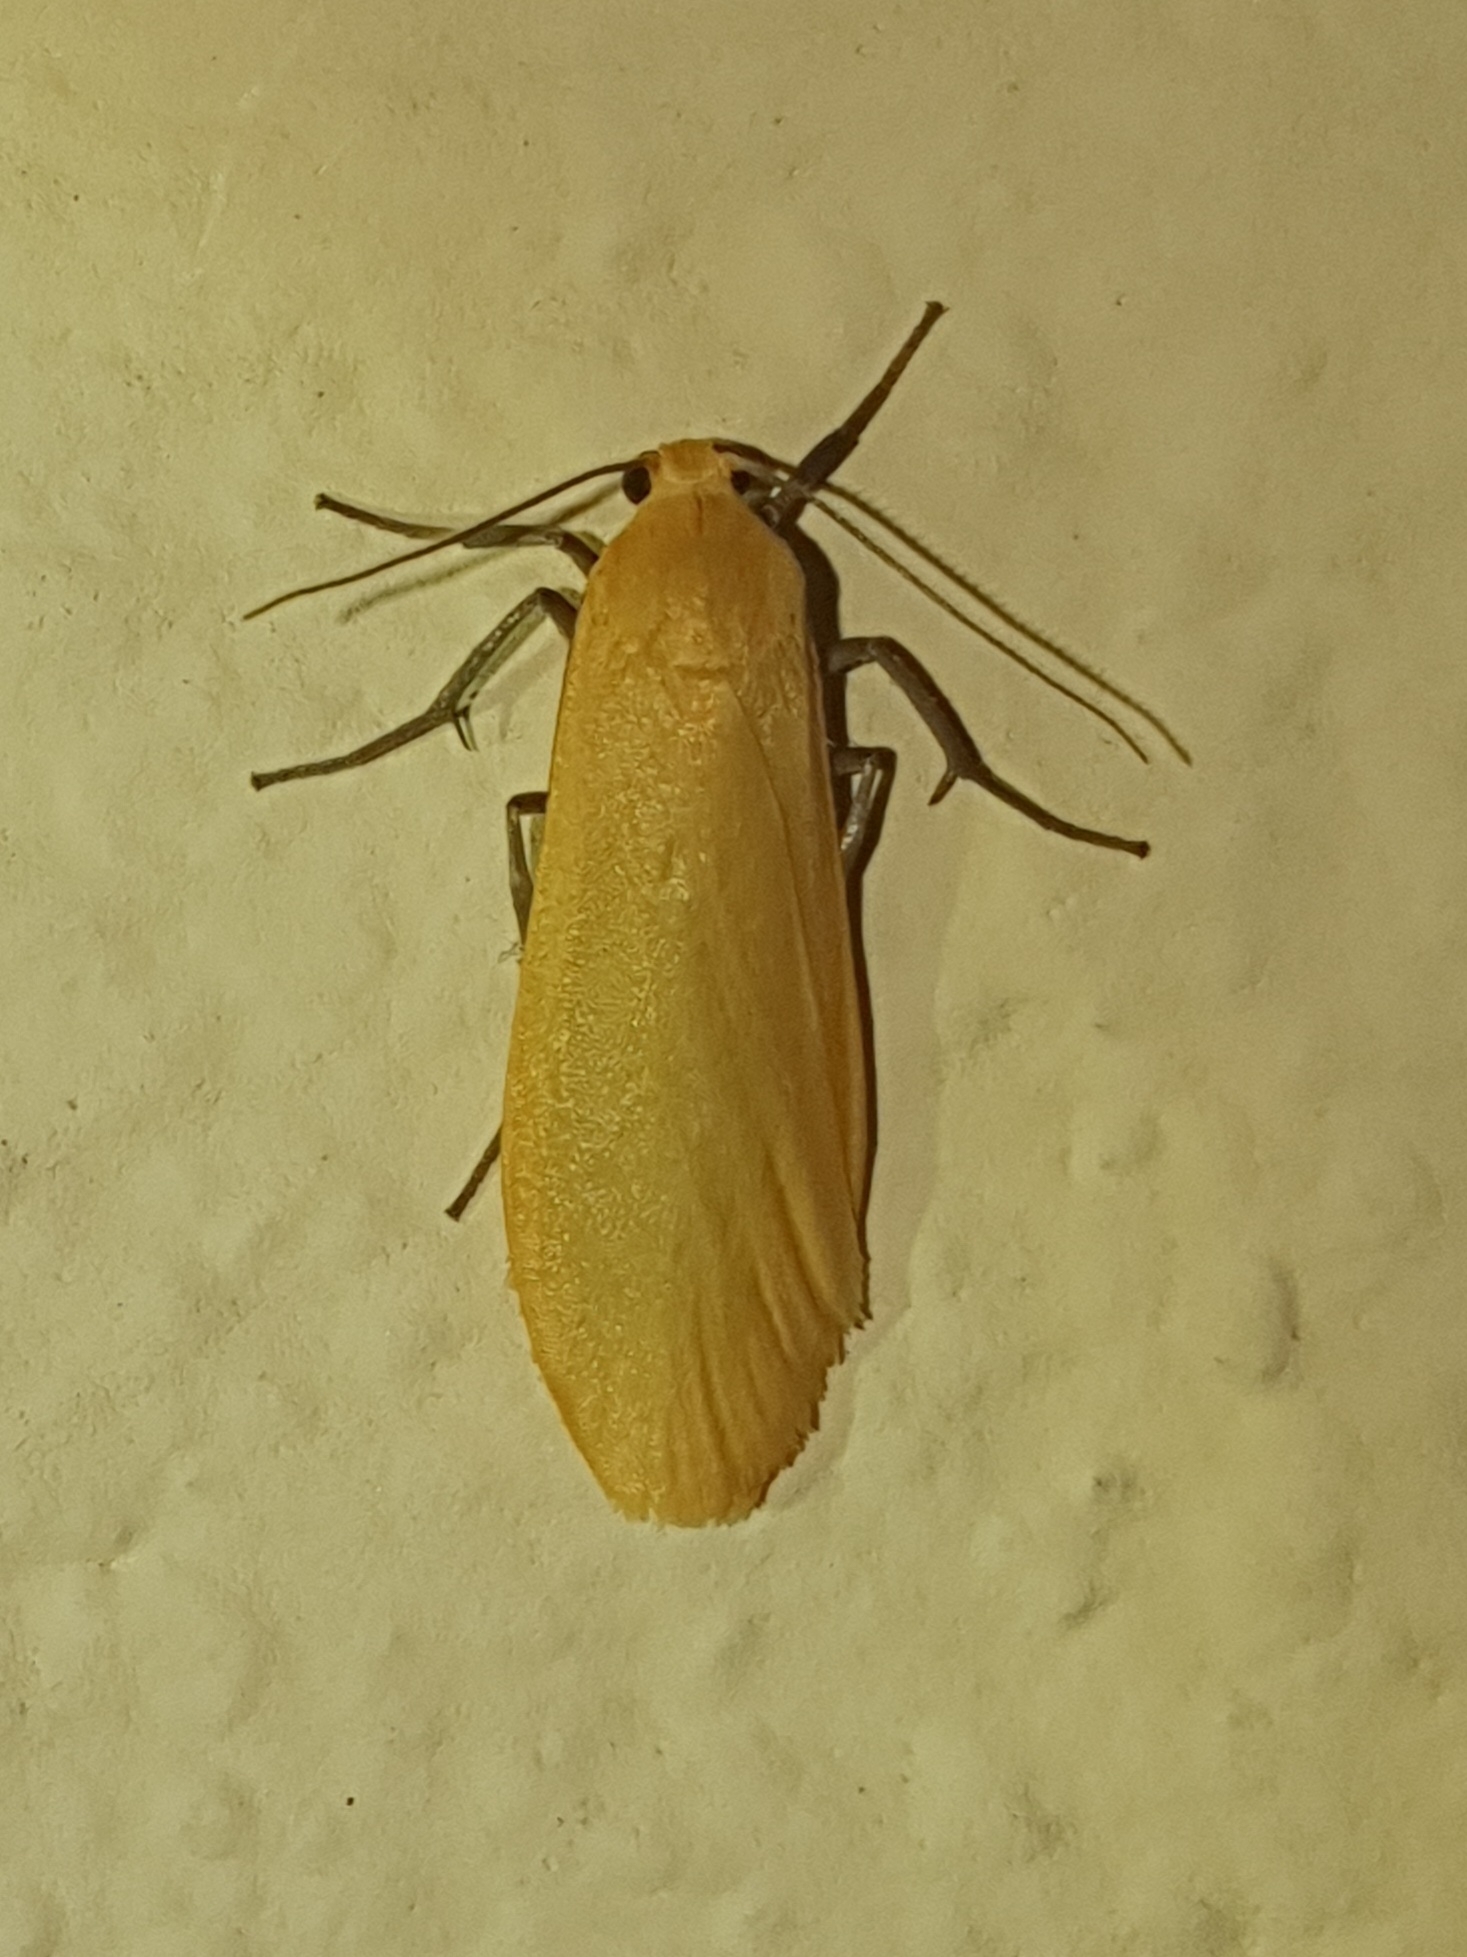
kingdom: Animalia
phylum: Arthropoda
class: Insecta
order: Lepidoptera
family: Erebidae
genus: Wittia
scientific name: Wittia sororcula
